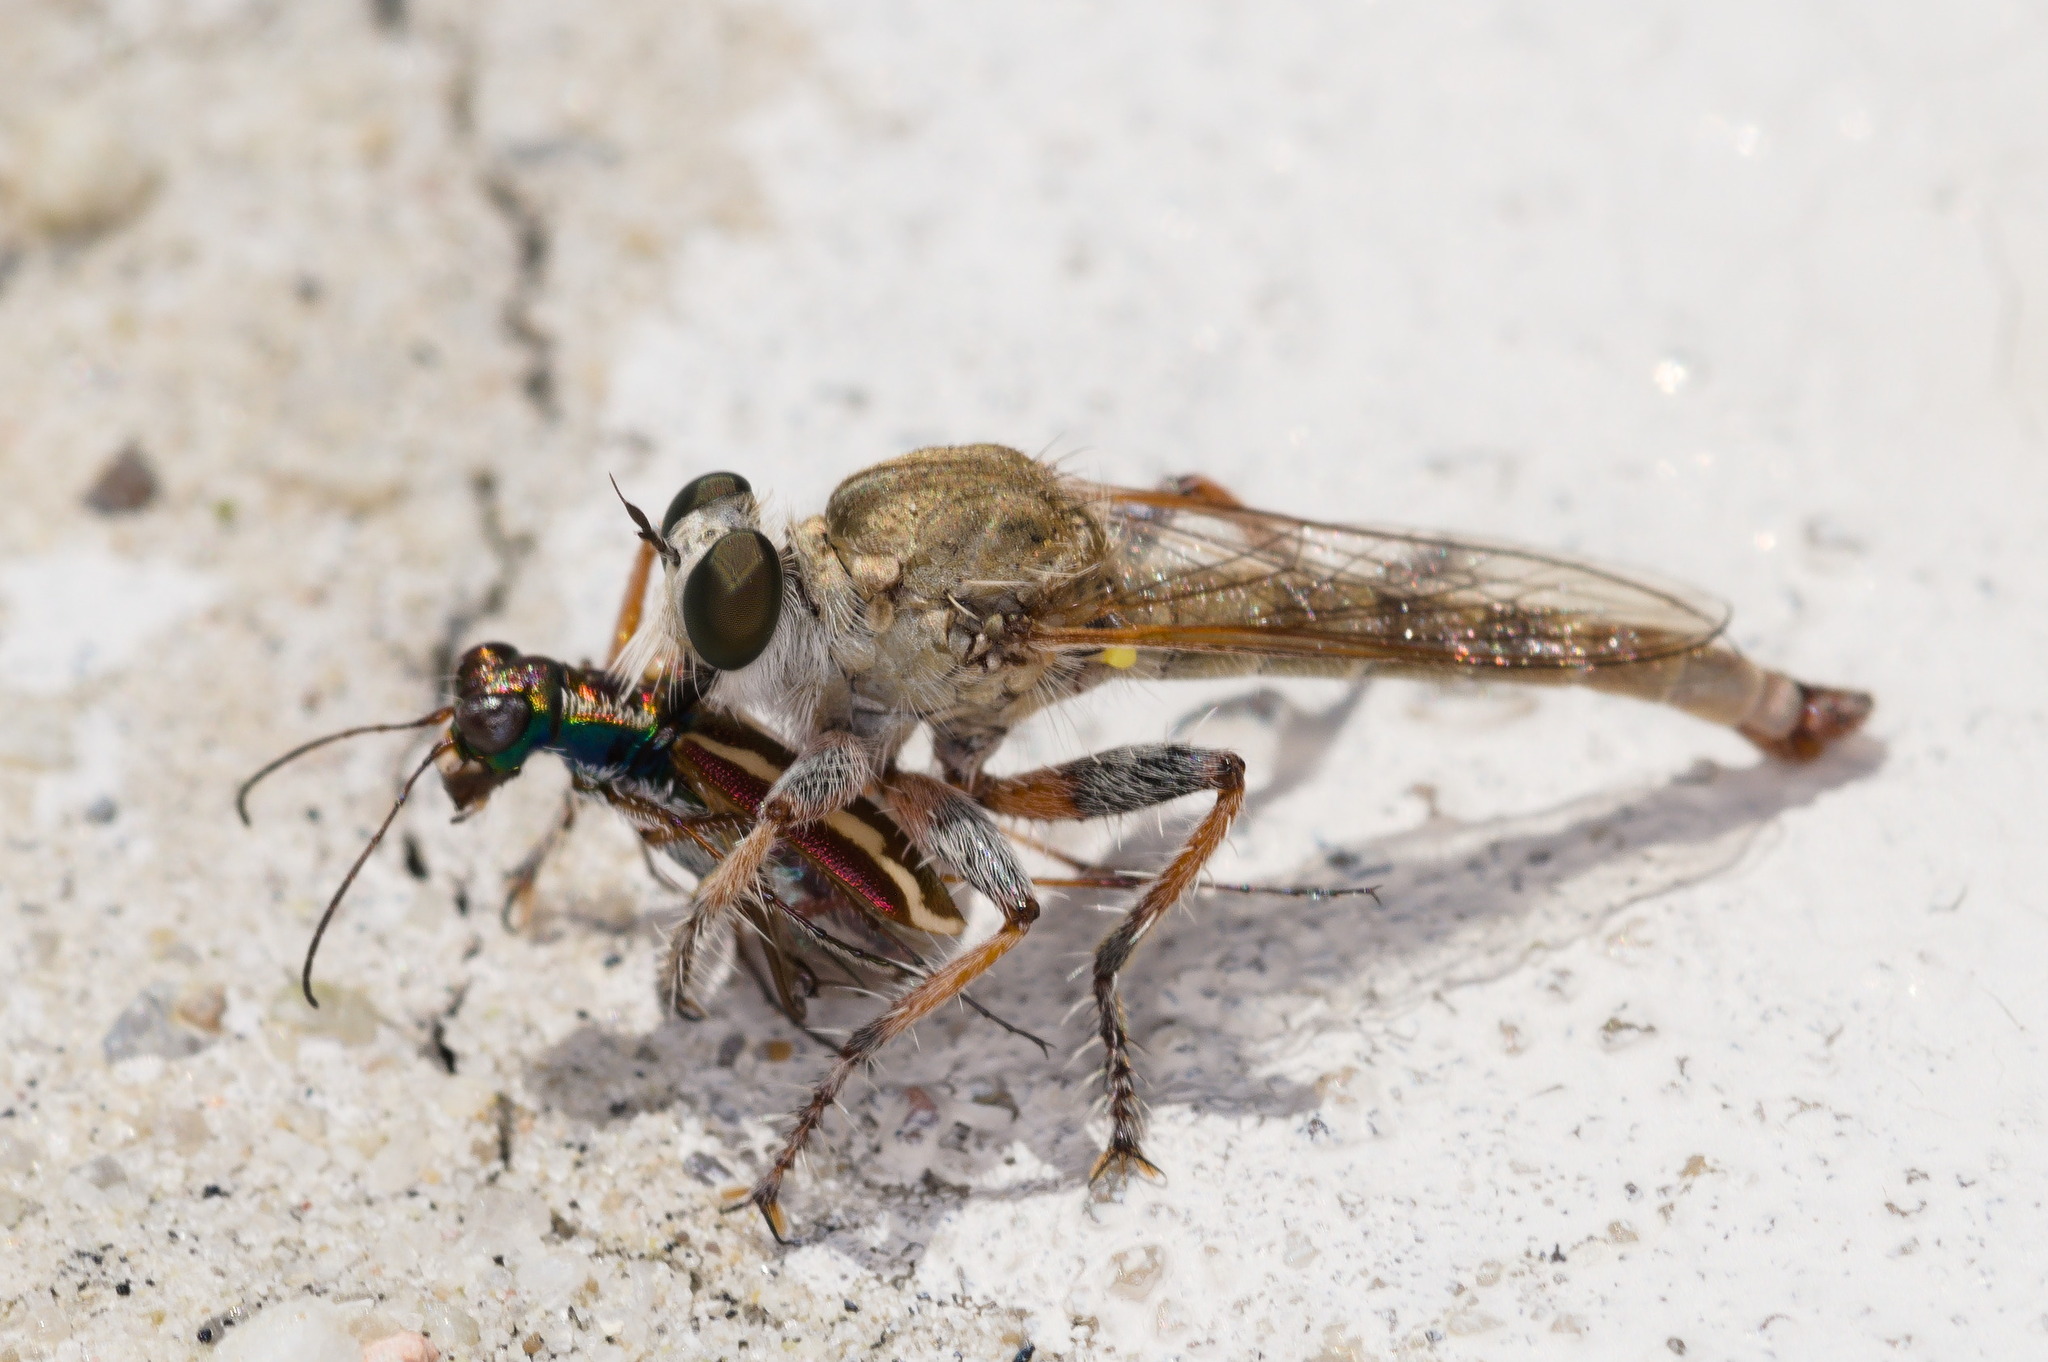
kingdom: Animalia
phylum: Arthropoda
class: Insecta
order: Coleoptera
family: Carabidae
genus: Cylindera
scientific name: Cylindera lemniscata
